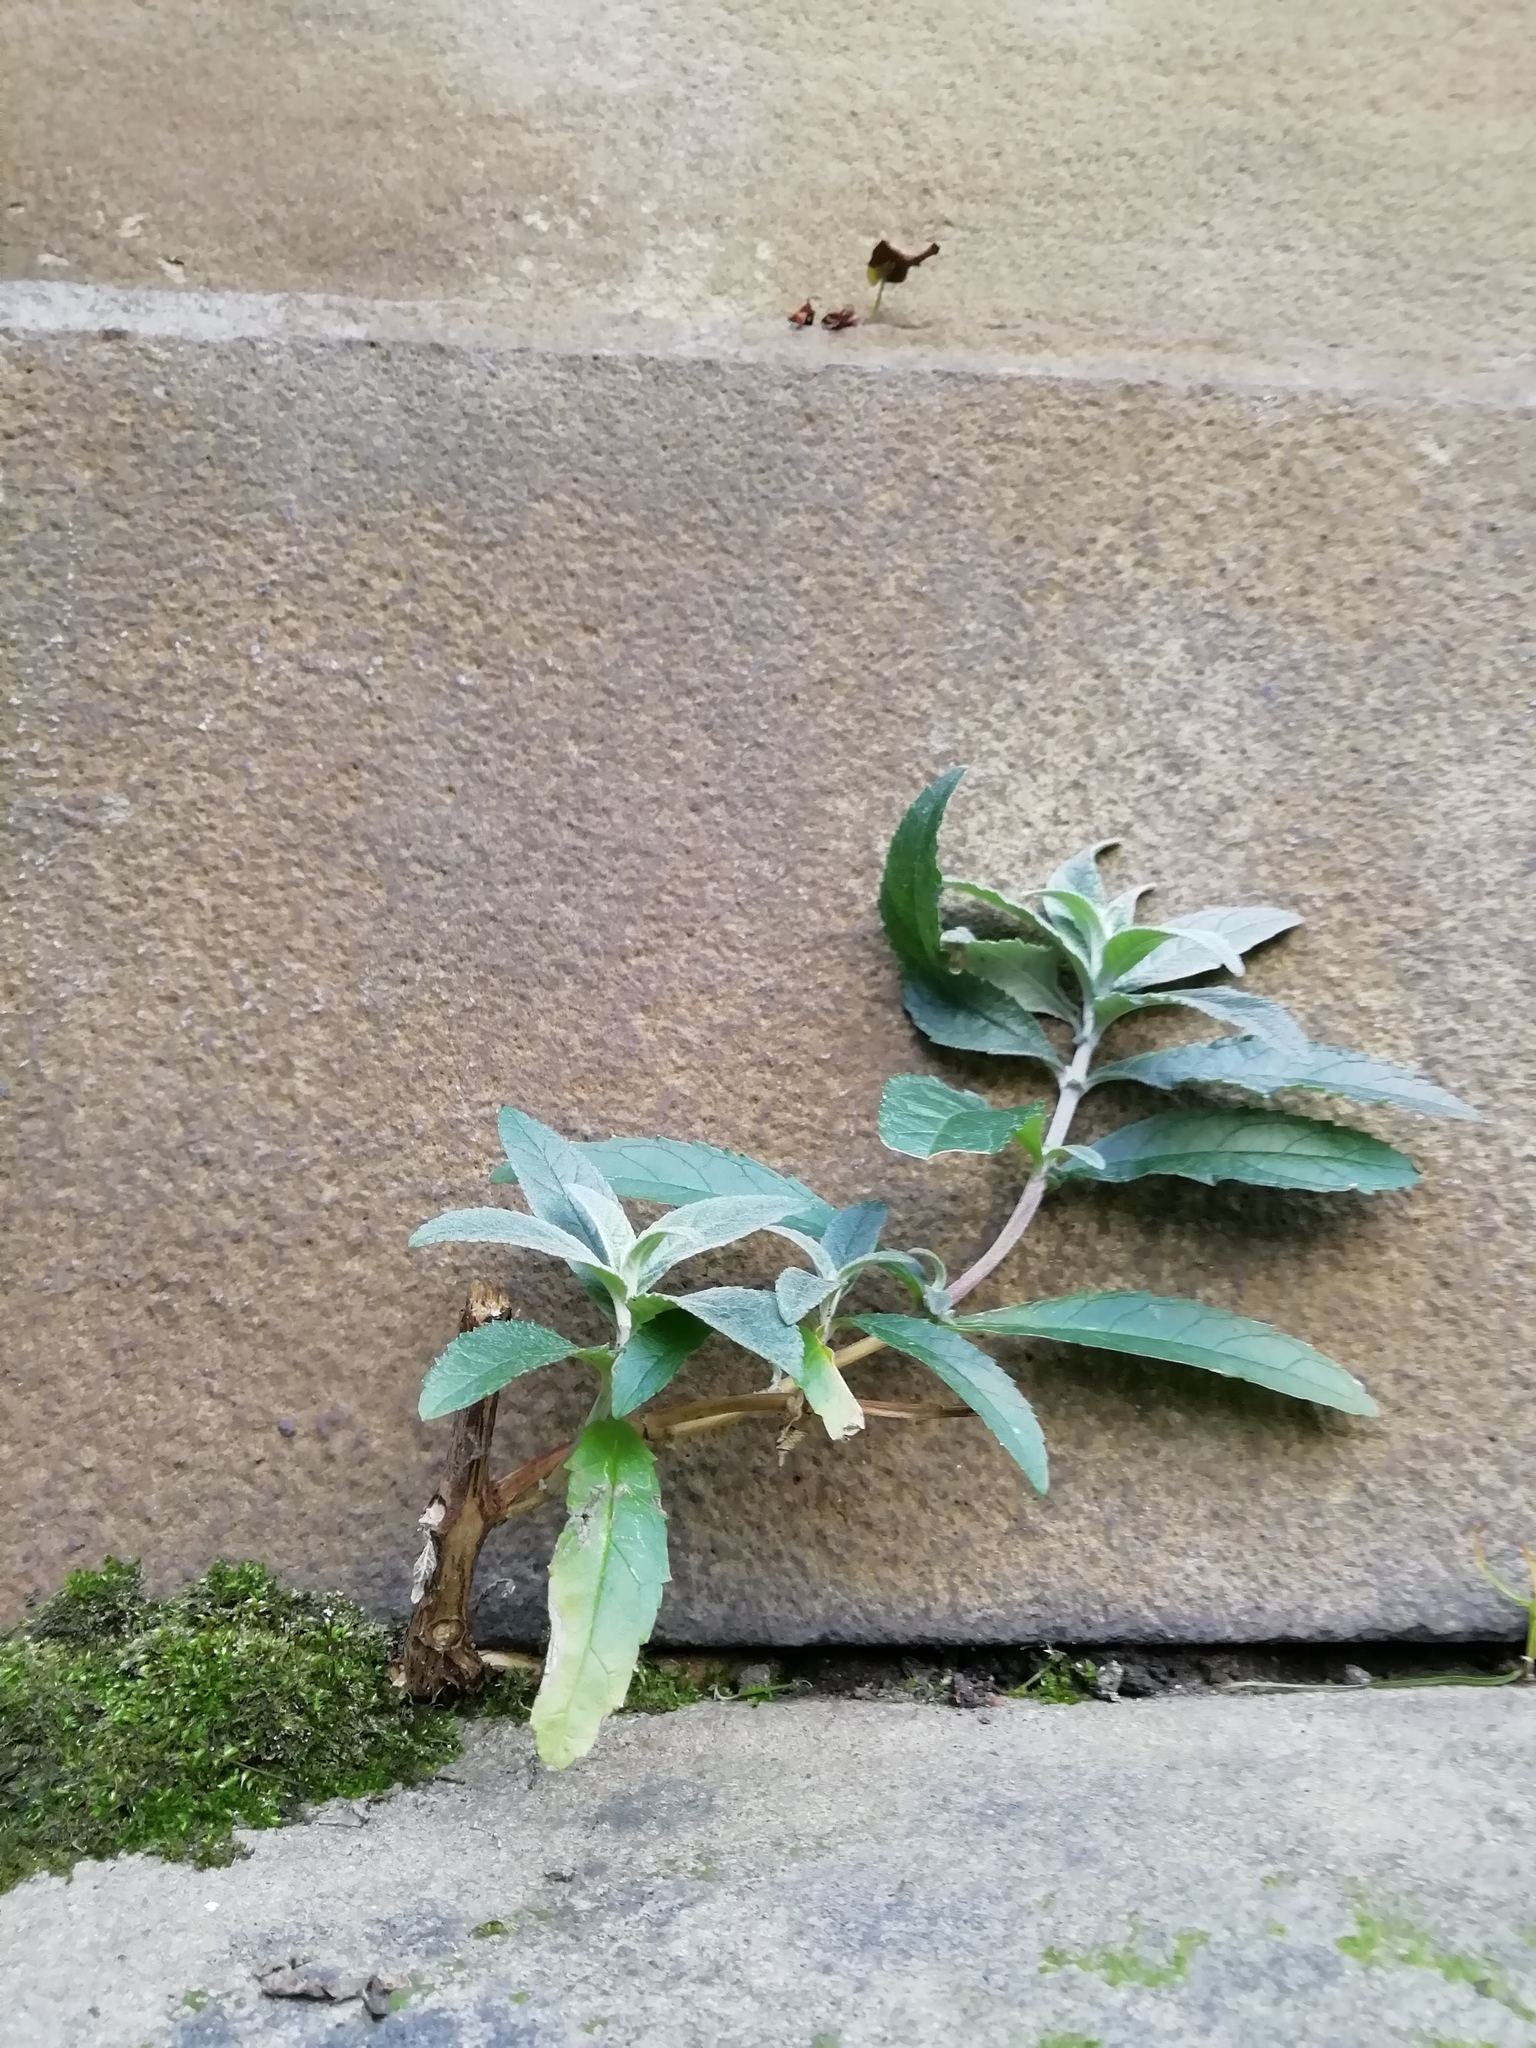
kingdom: Plantae
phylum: Tracheophyta
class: Magnoliopsida
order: Lamiales
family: Scrophulariaceae
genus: Buddleja
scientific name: Buddleja davidii
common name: Butterfly-bush
